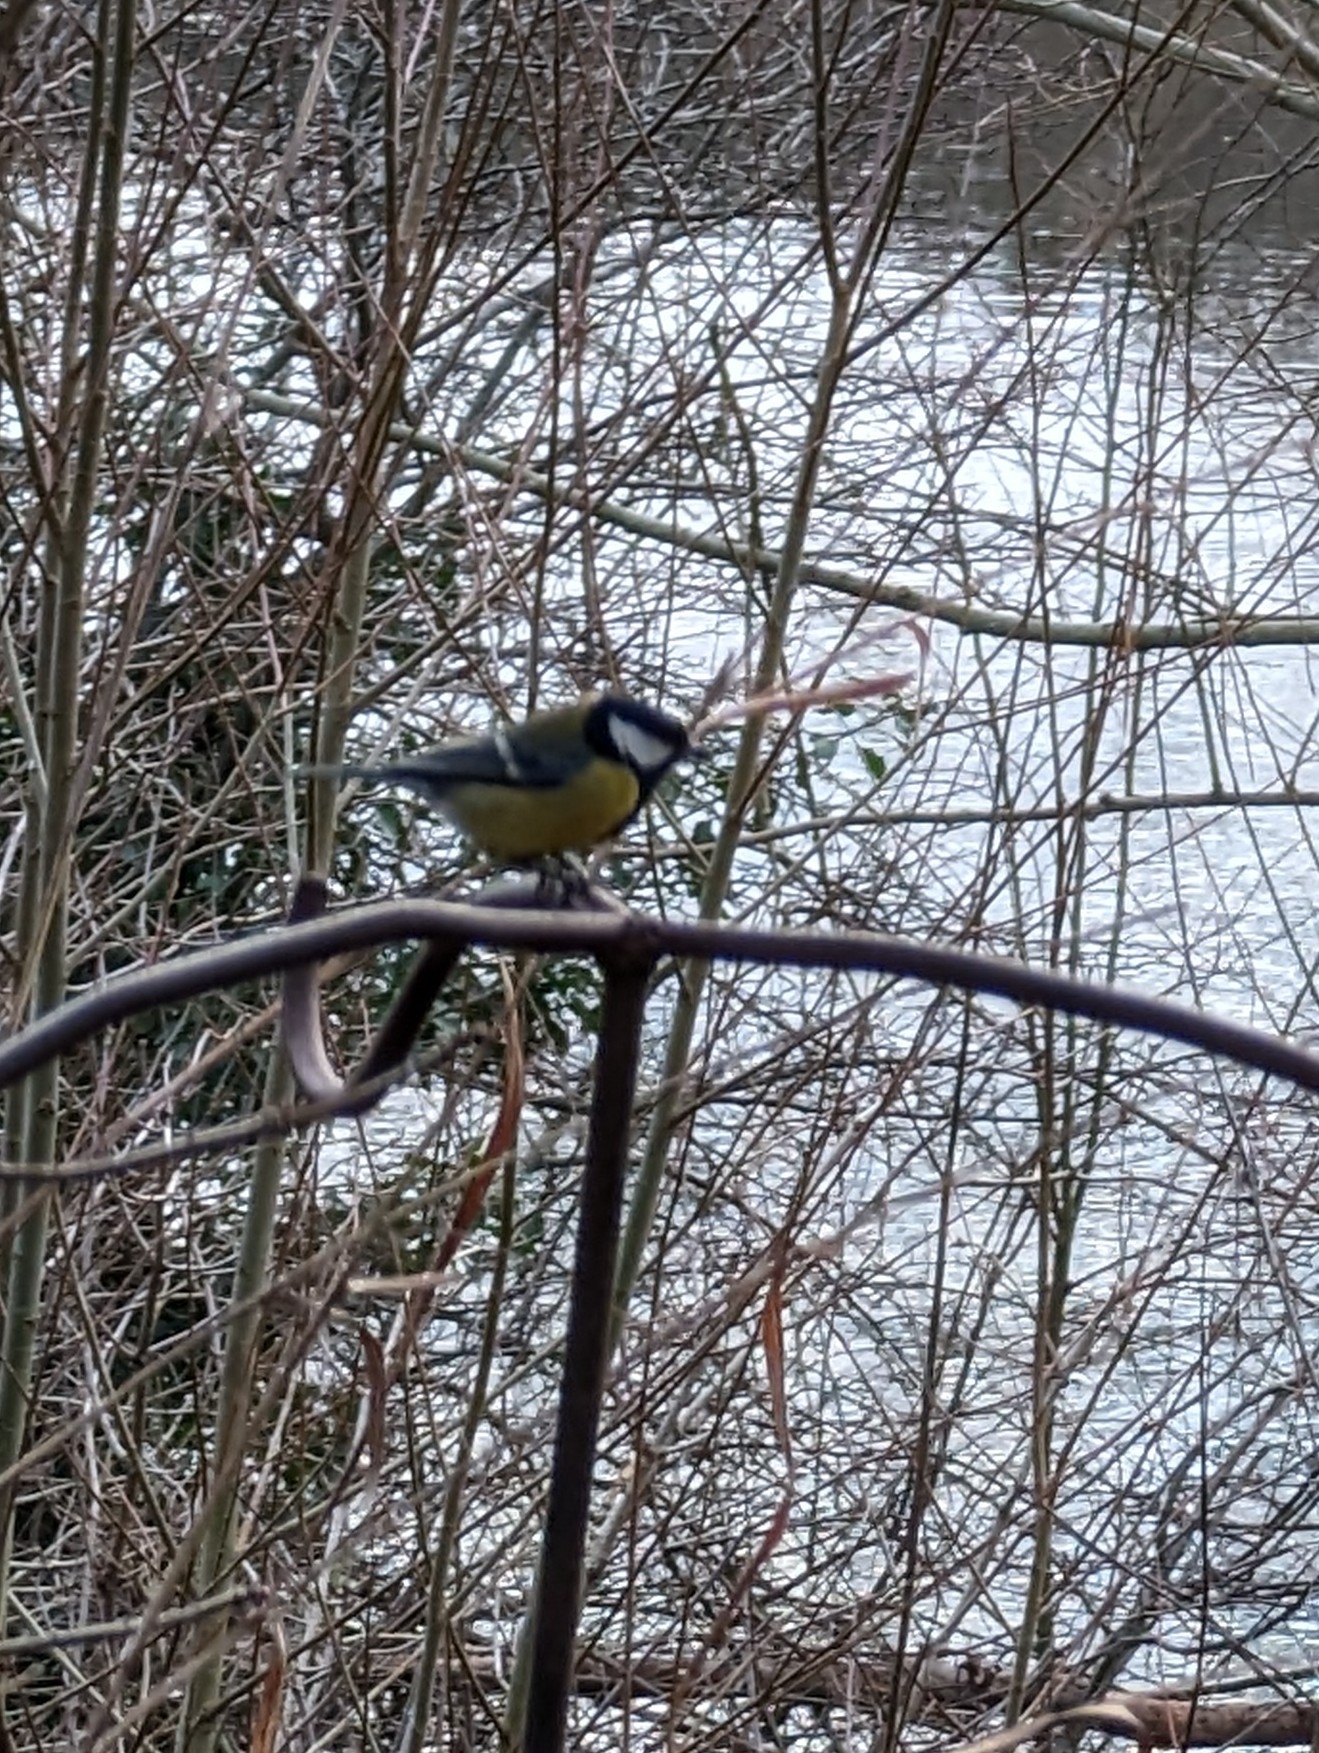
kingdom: Animalia
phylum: Chordata
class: Aves
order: Passeriformes
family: Paridae
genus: Parus
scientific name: Parus major
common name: Great tit
